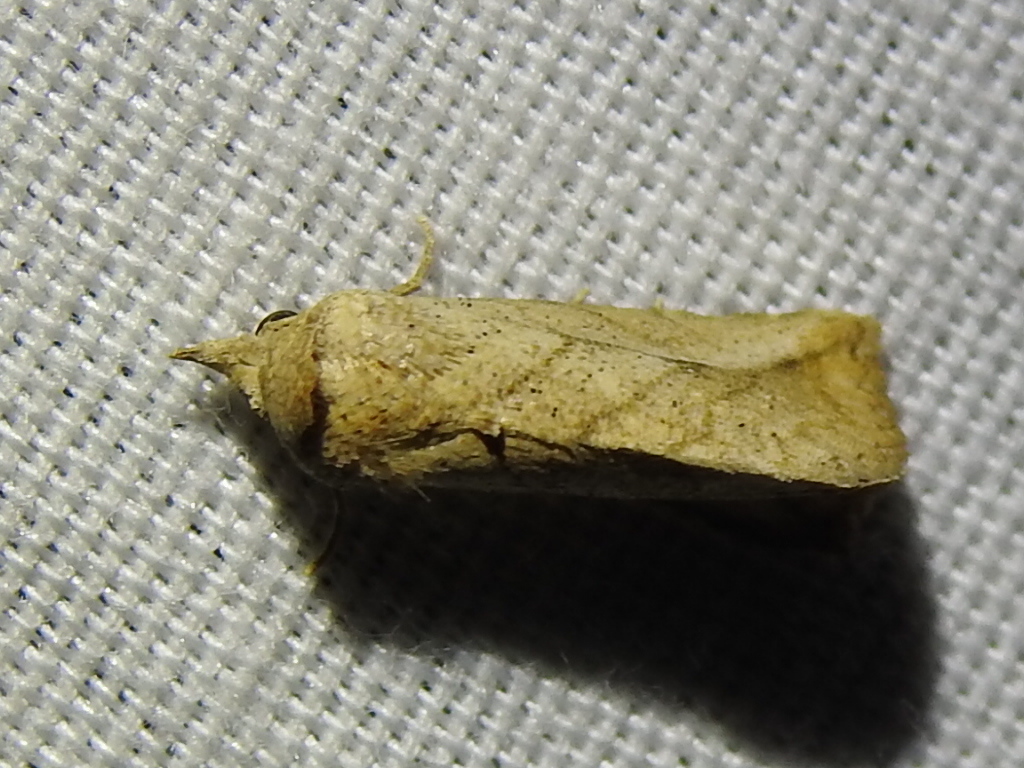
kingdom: Animalia
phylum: Arthropoda
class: Insecta
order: Lepidoptera
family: Erebidae
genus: Isogona
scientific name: Isogona snowi
